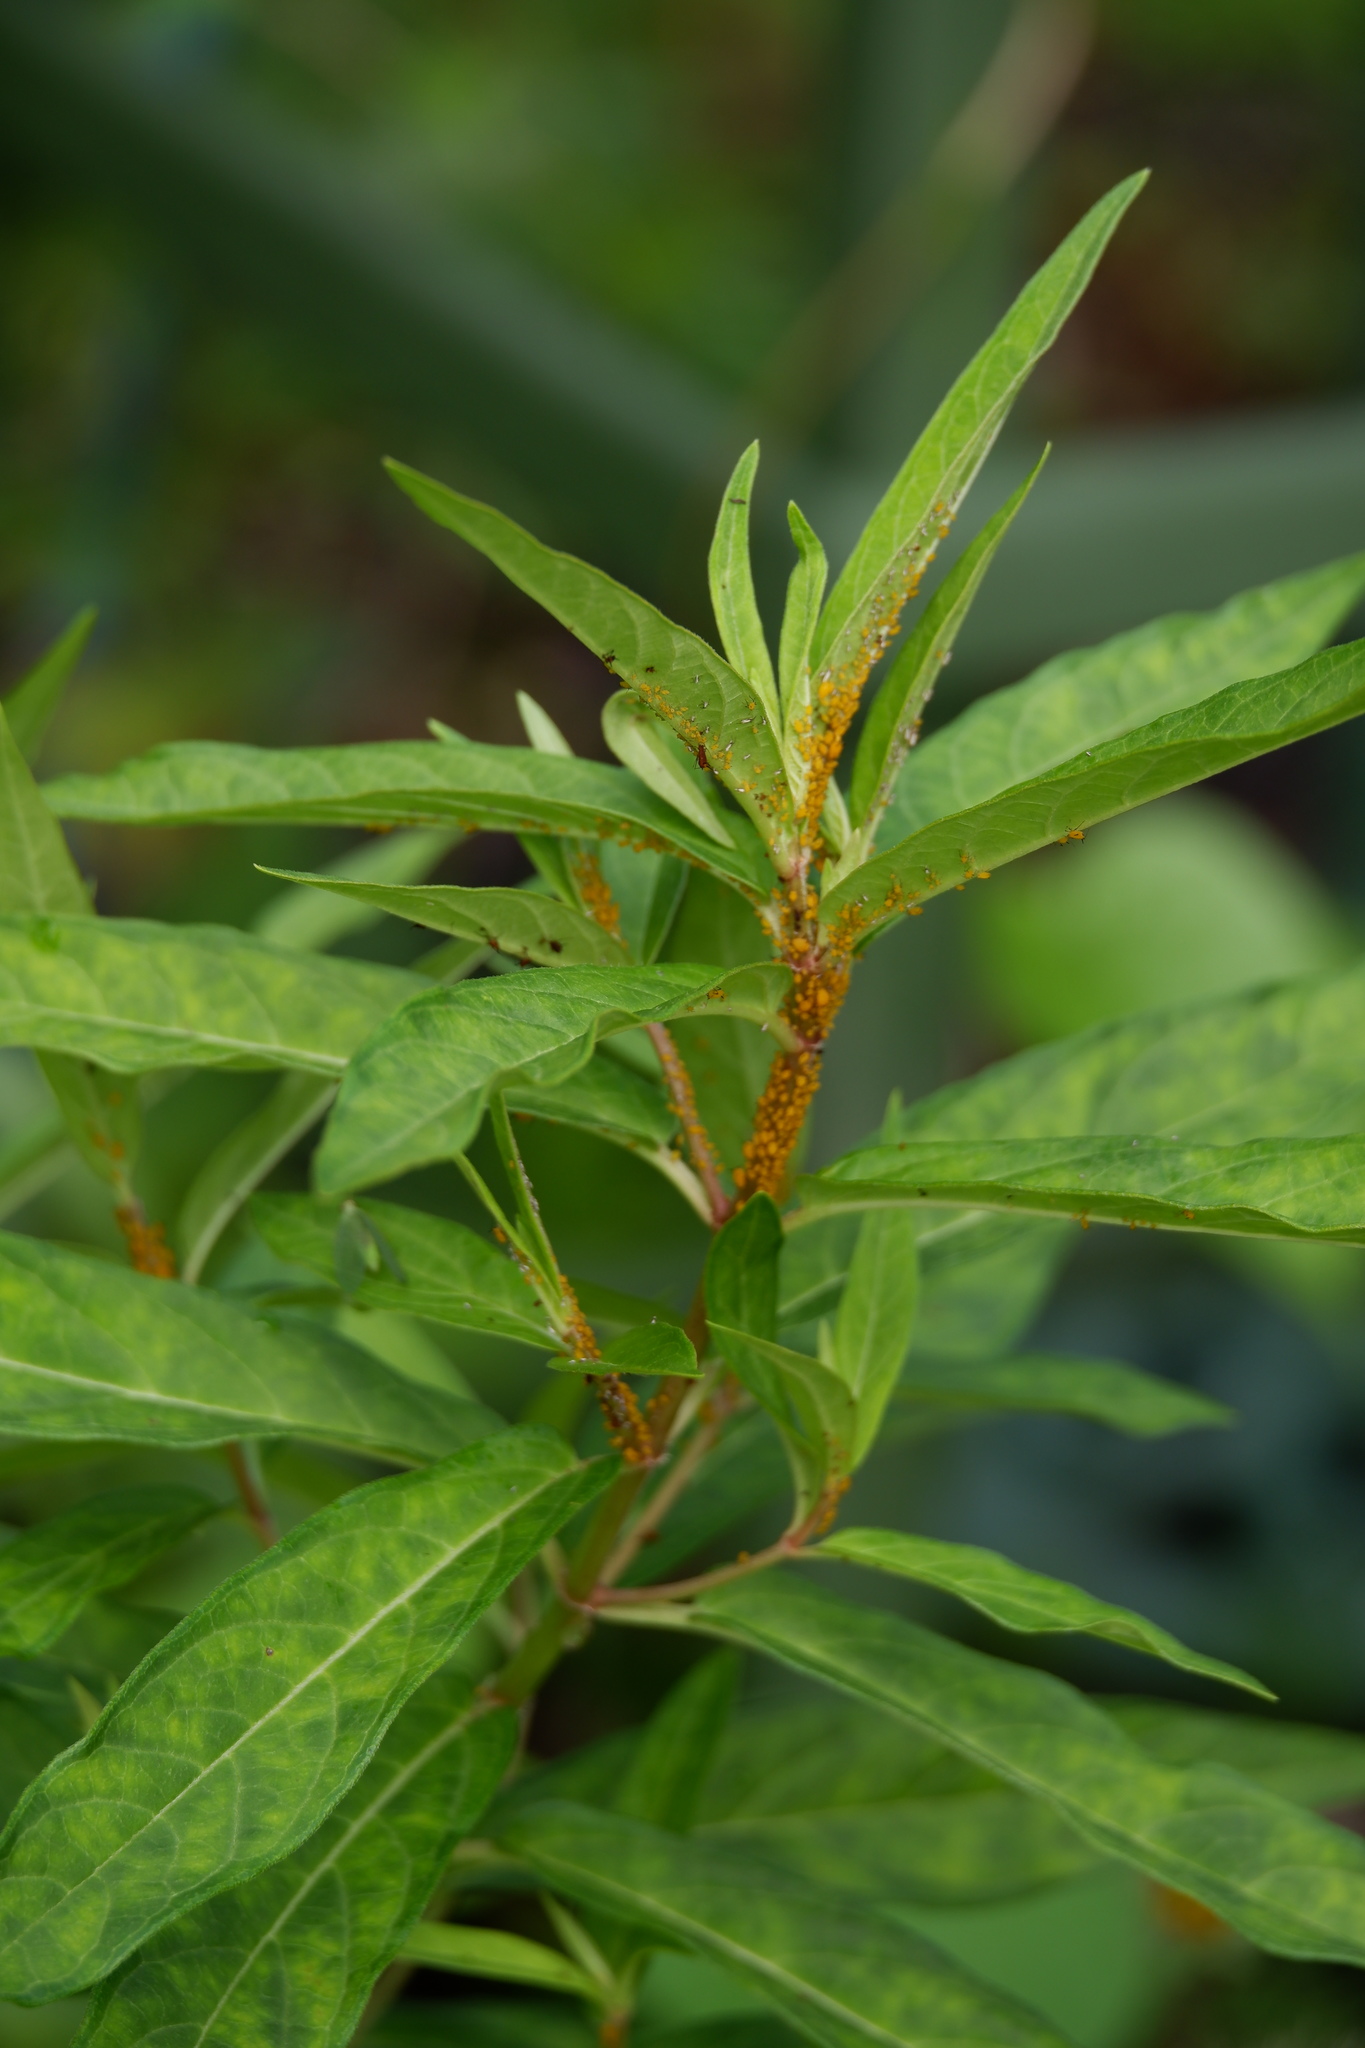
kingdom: Animalia
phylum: Arthropoda
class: Insecta
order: Hemiptera
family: Aphididae
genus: Aphis
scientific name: Aphis nerii
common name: Oleander aphid
